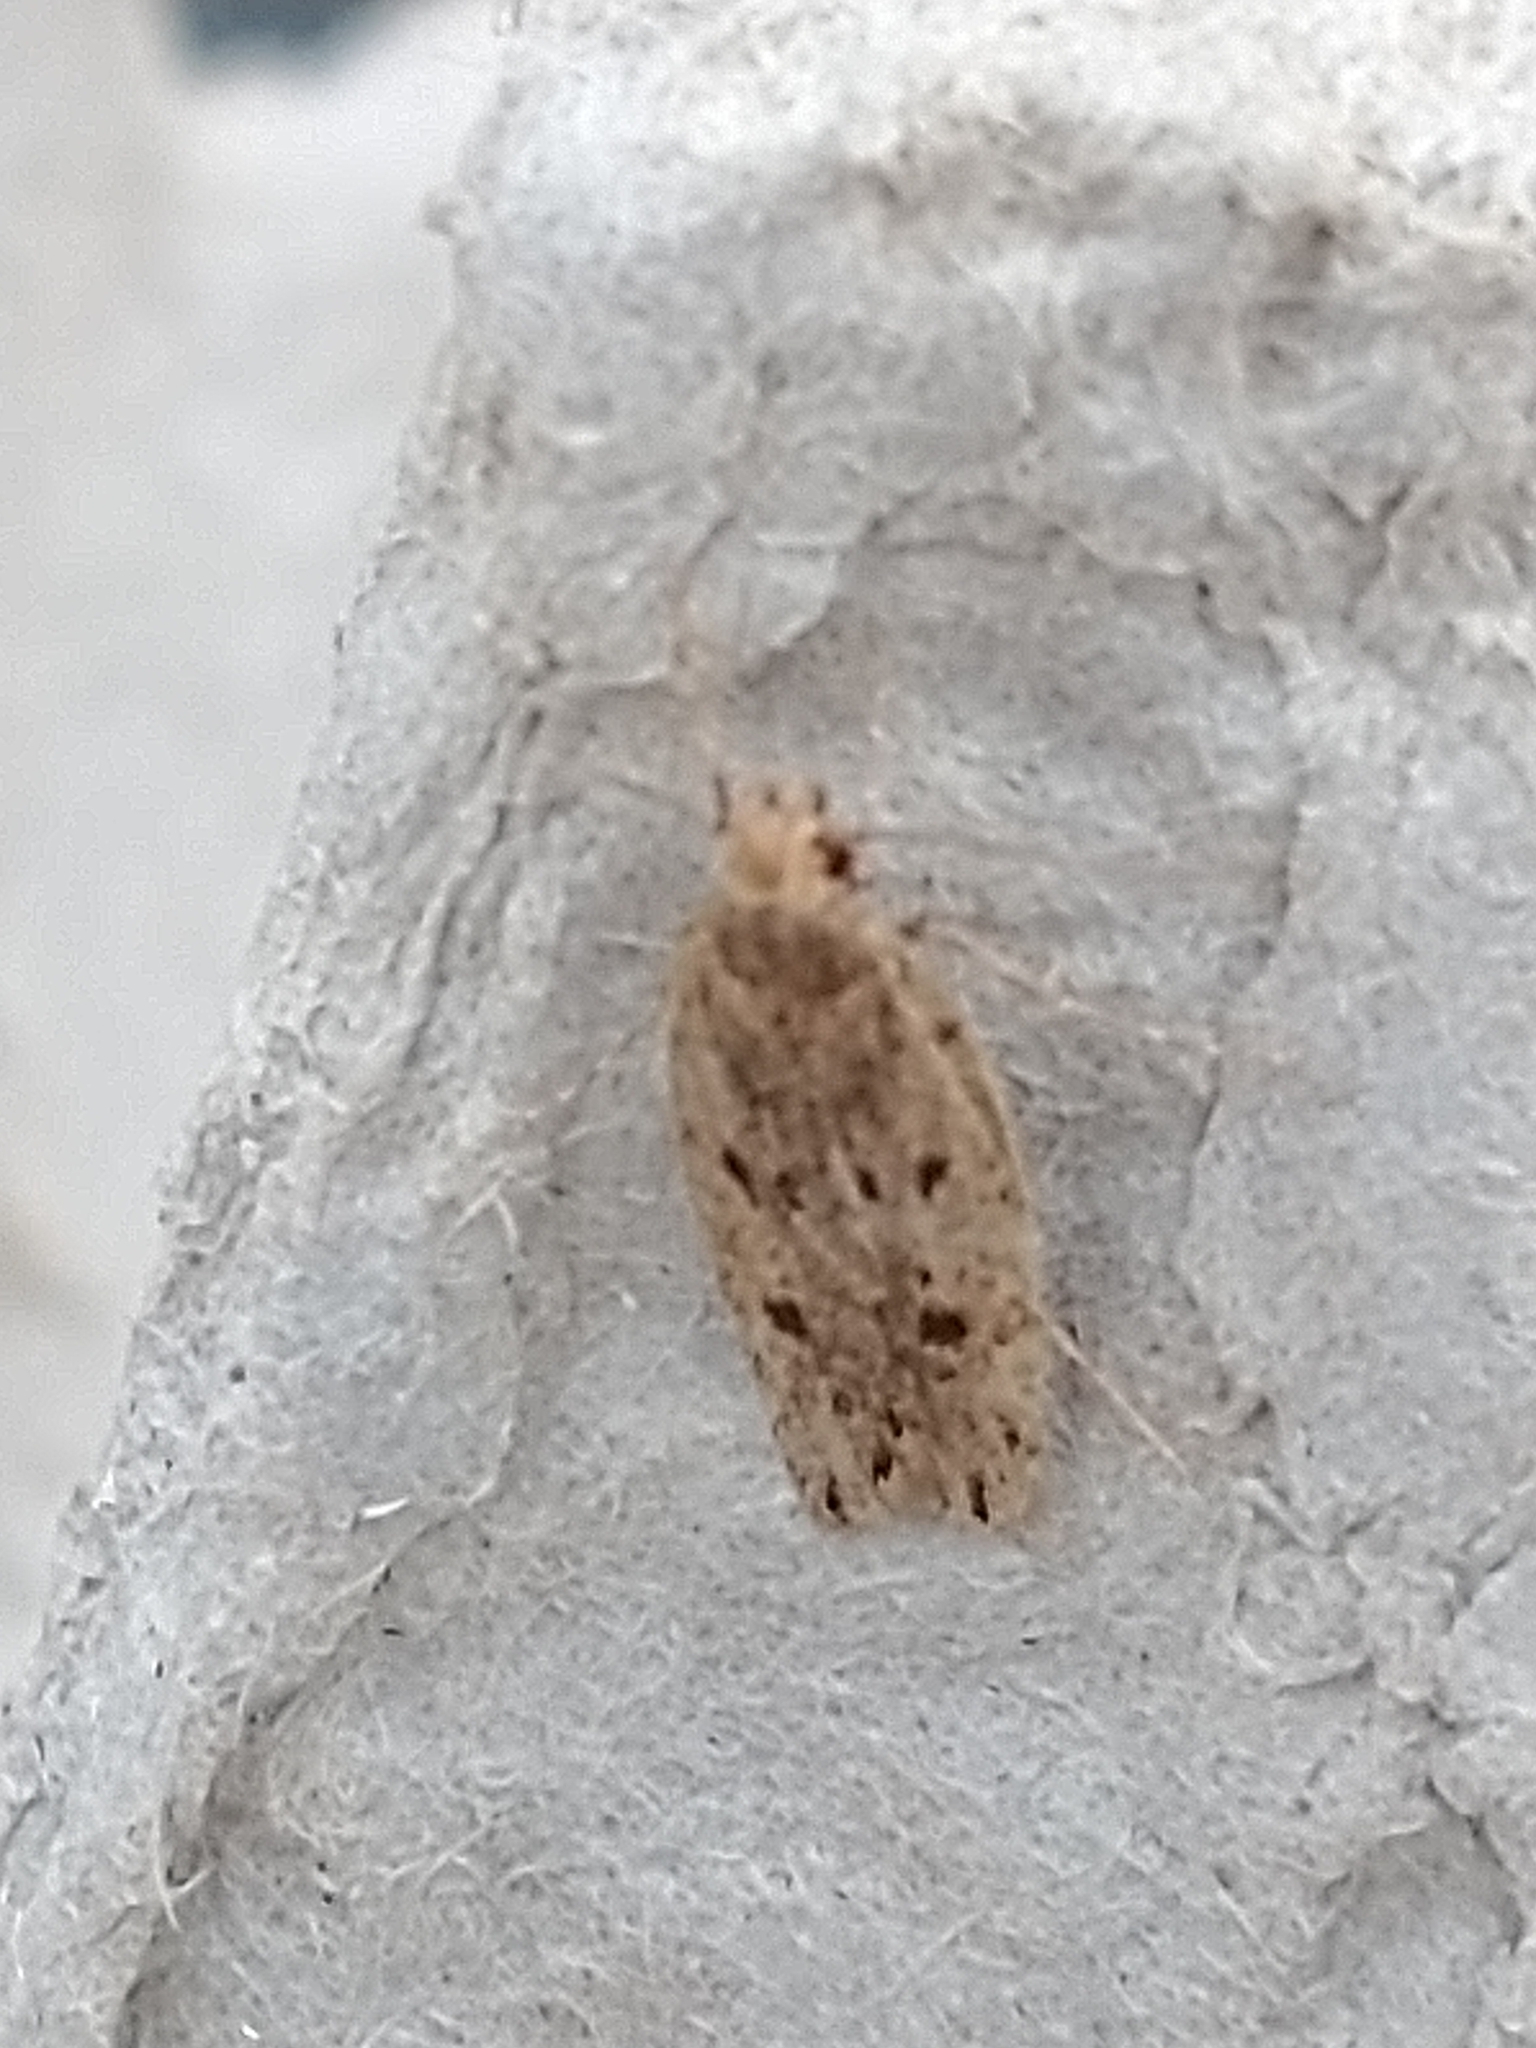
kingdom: Animalia
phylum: Arthropoda
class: Insecta
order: Lepidoptera
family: Oecophoridae
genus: Hofmannophila
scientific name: Hofmannophila pseudospretella
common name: Brown house moth
